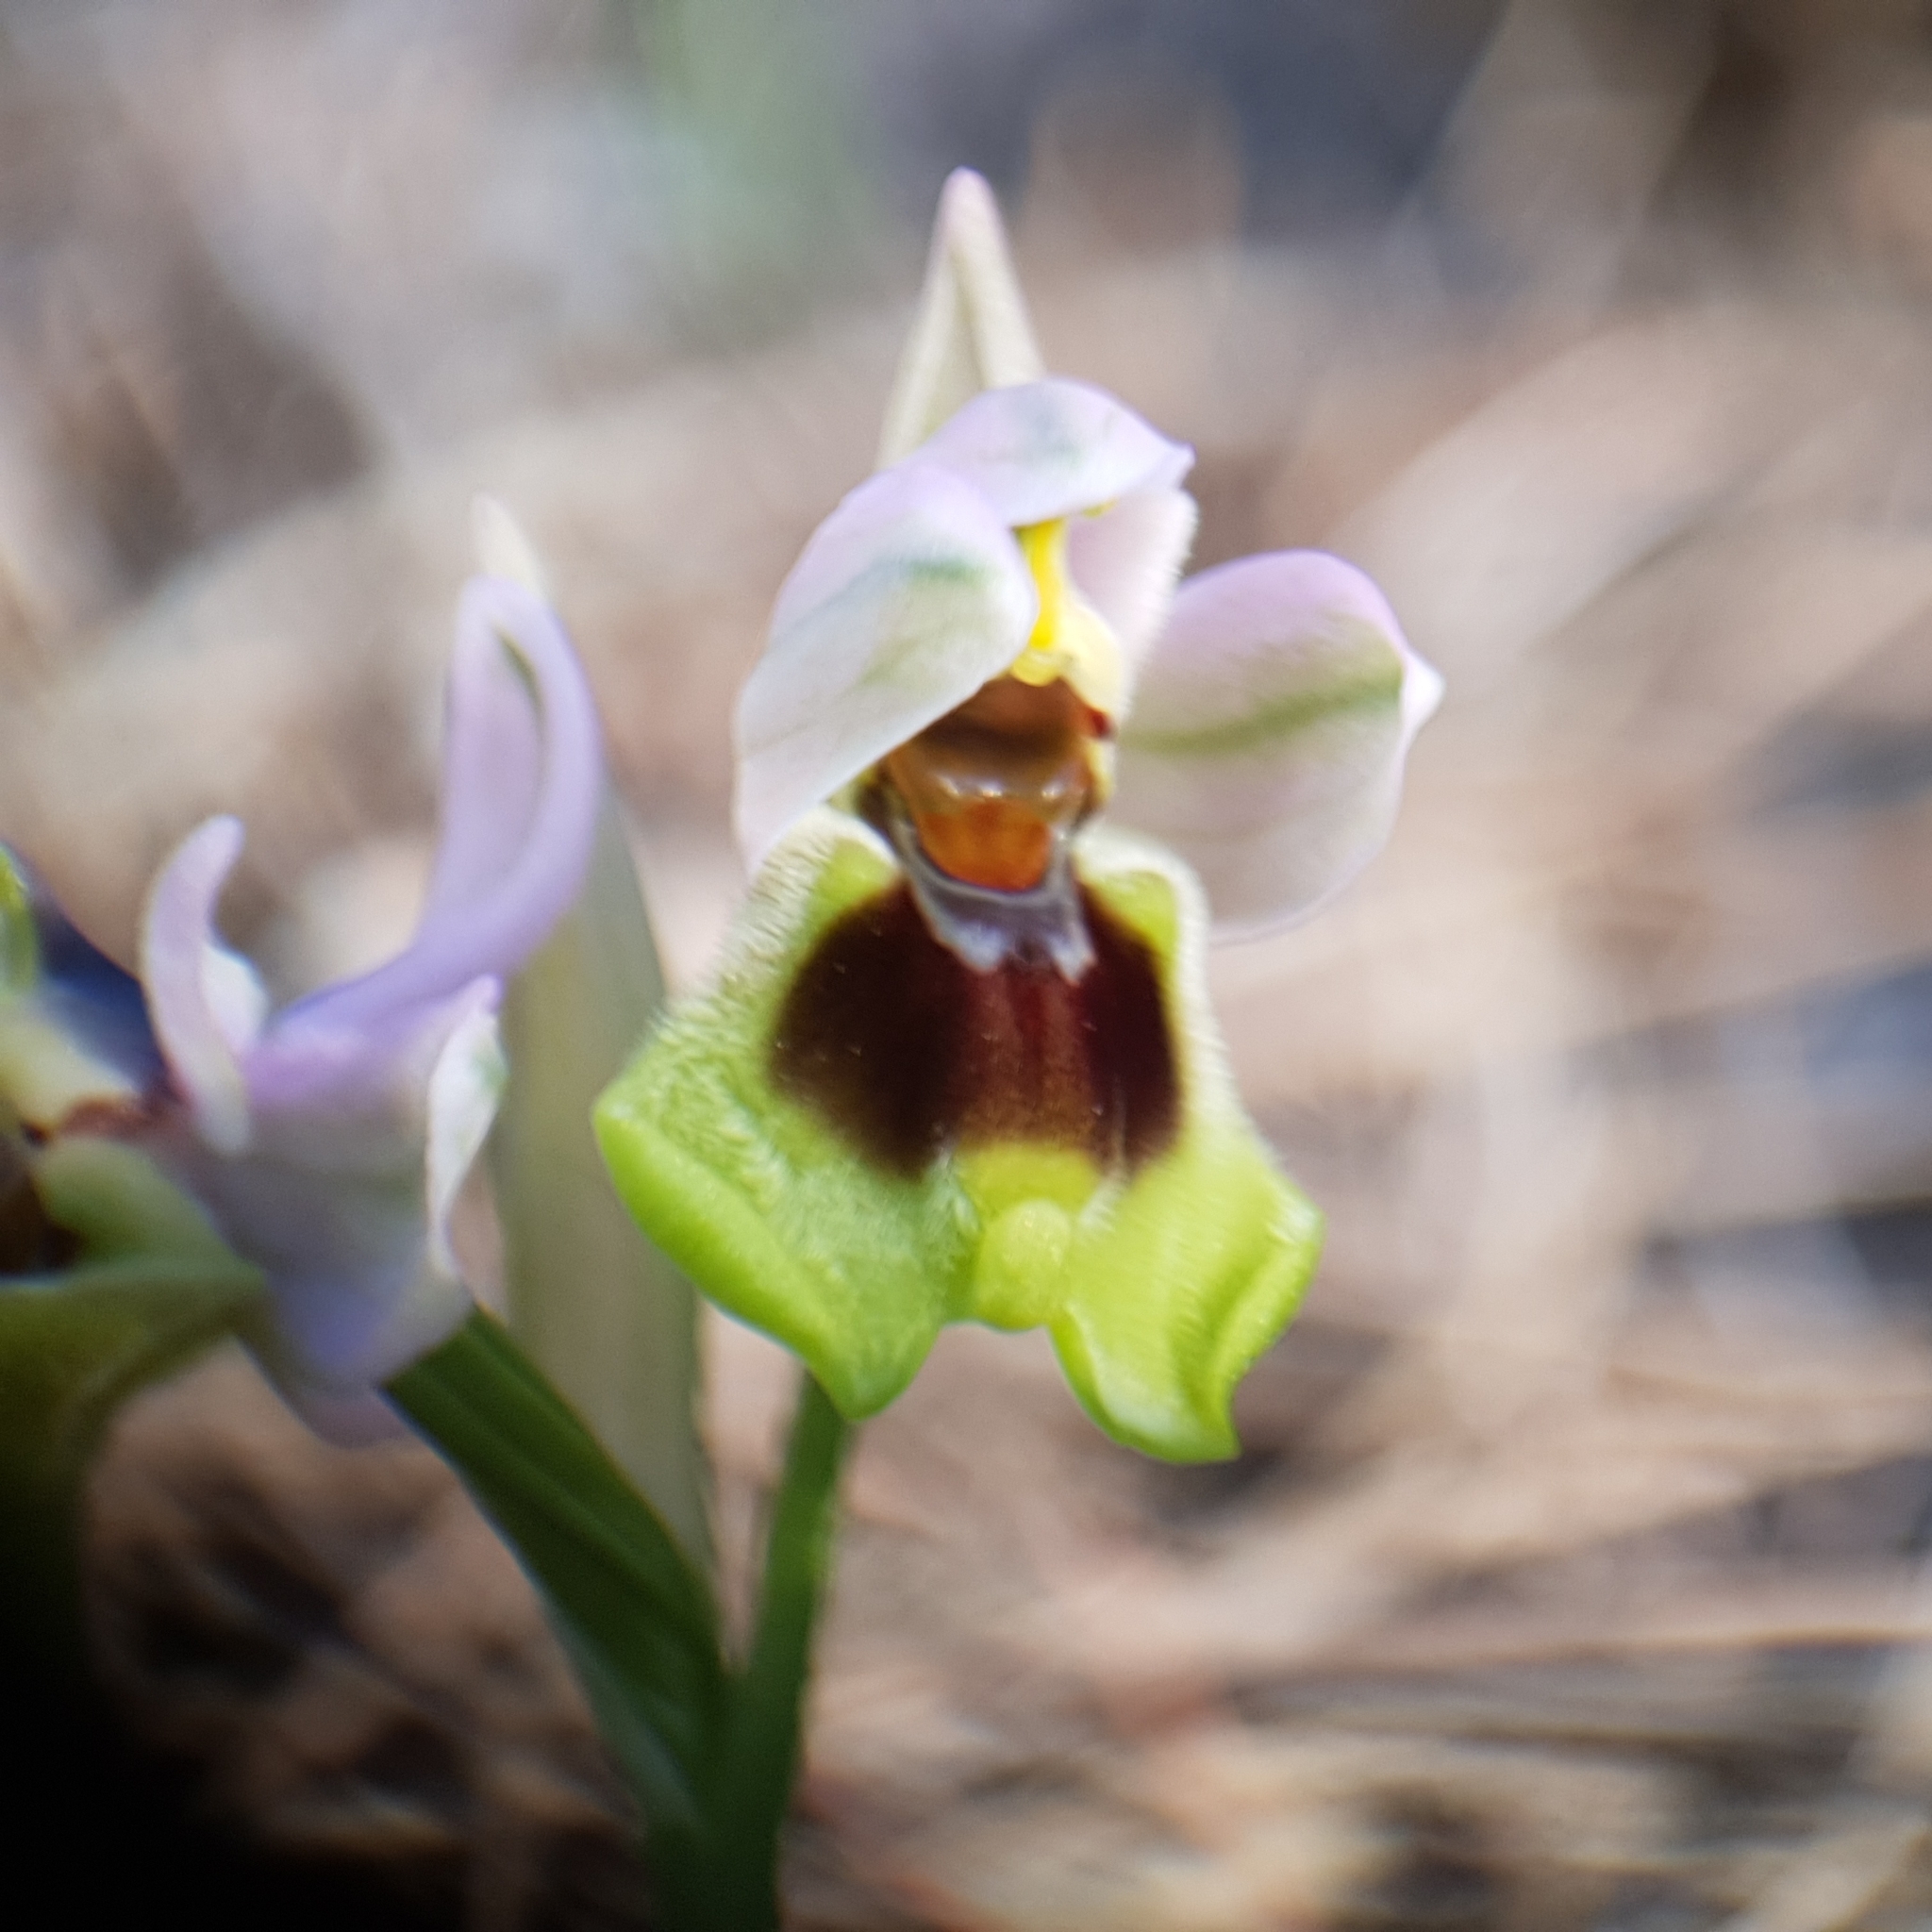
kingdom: Plantae
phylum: Tracheophyta
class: Liliopsida
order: Asparagales
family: Orchidaceae
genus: Ophrys
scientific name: Ophrys tenthredinifera
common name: Sawfly orchid
